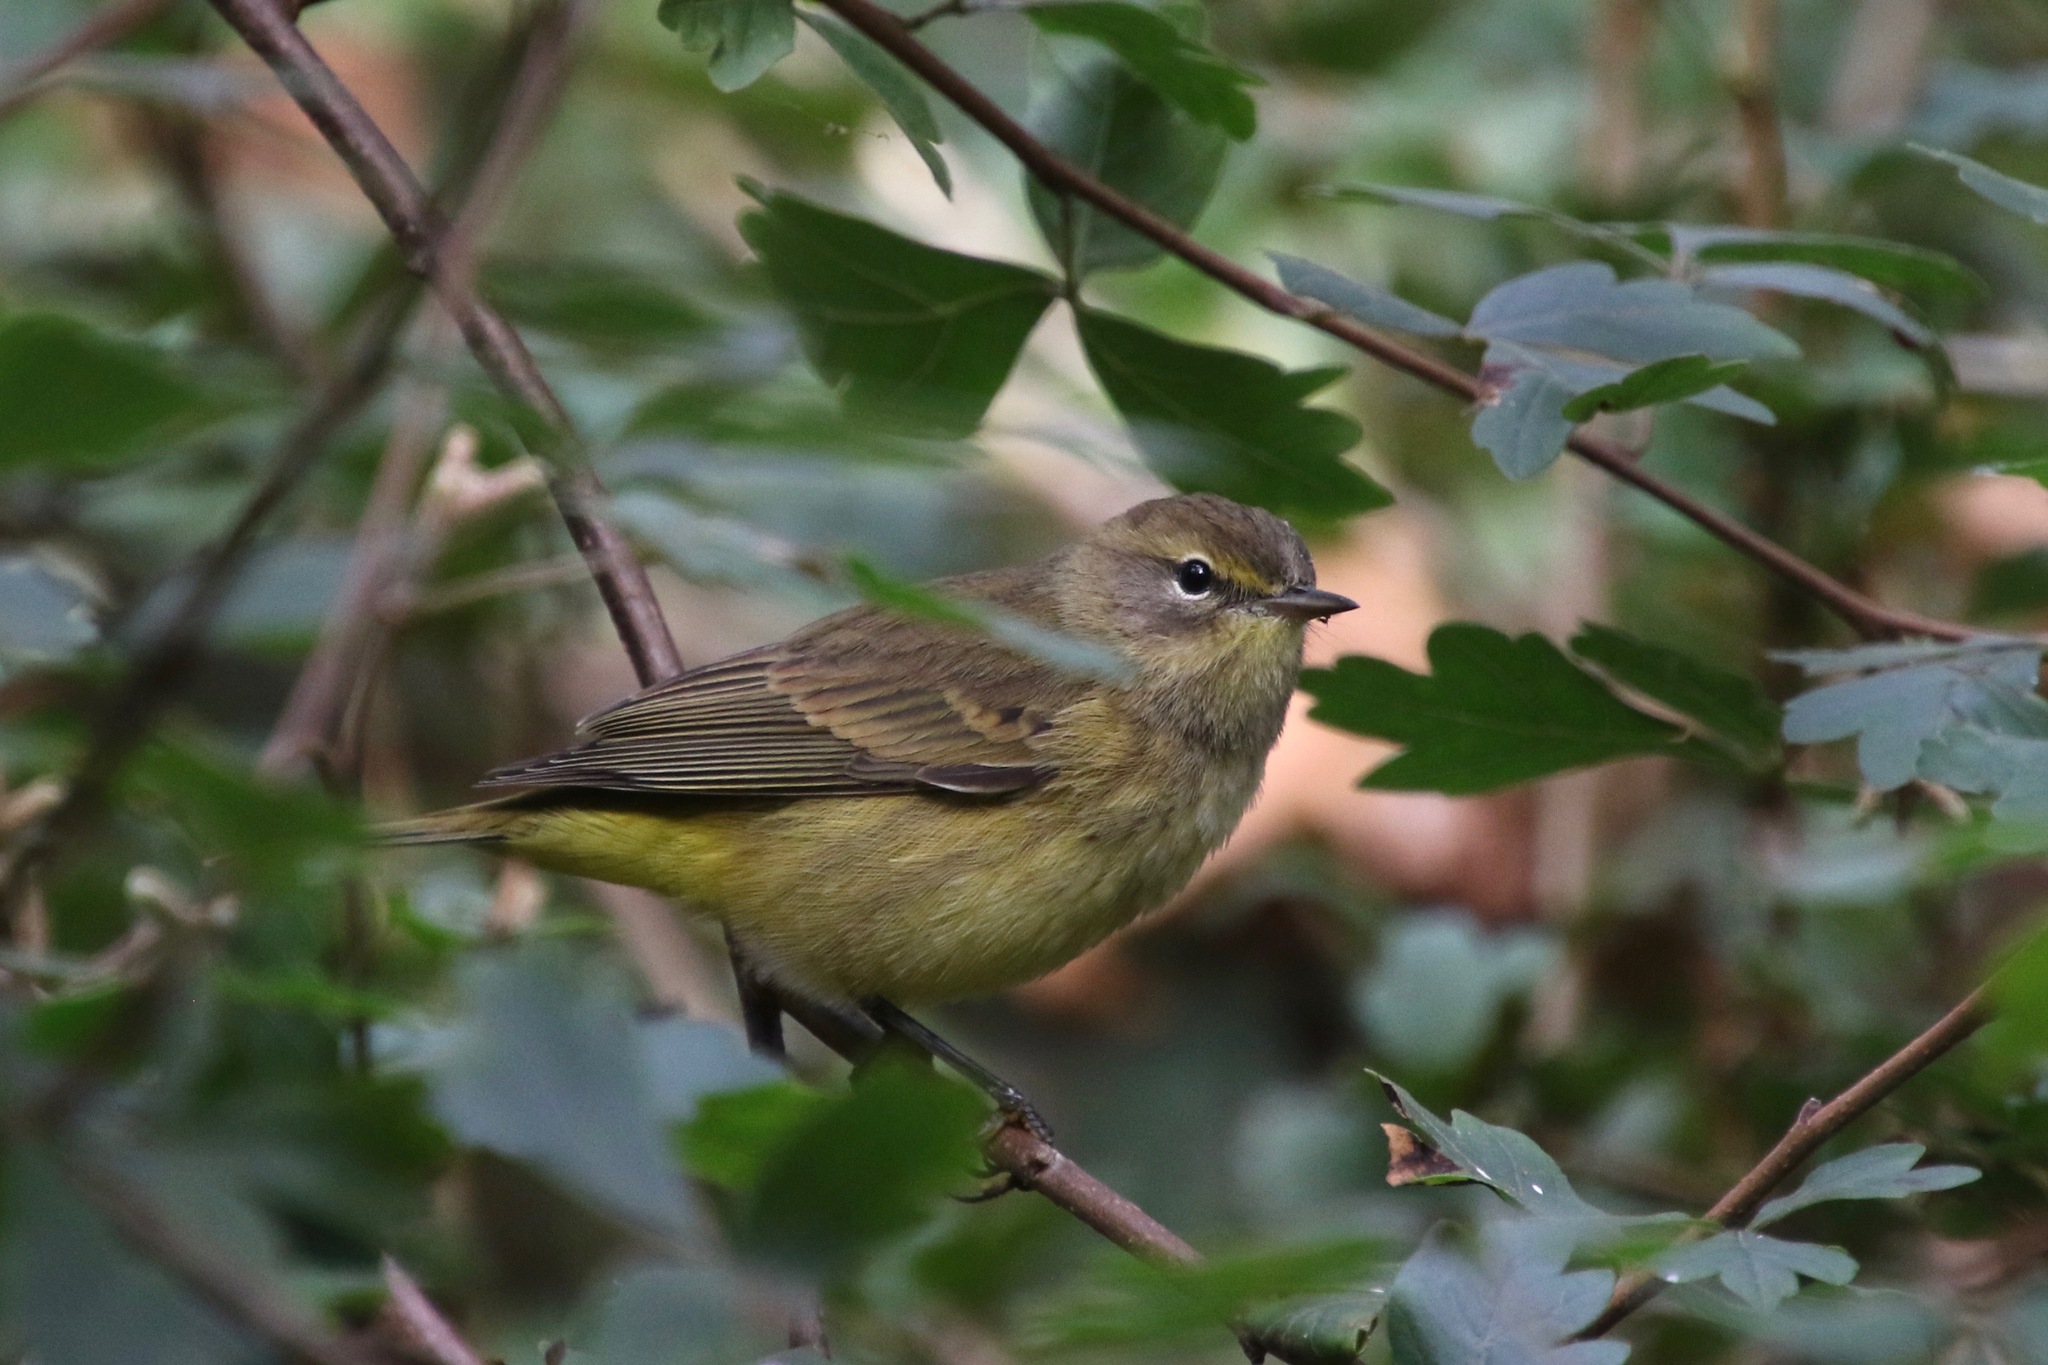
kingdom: Animalia
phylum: Chordata
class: Aves
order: Passeriformes
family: Parulidae
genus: Setophaga
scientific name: Setophaga palmarum
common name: Palm warbler
